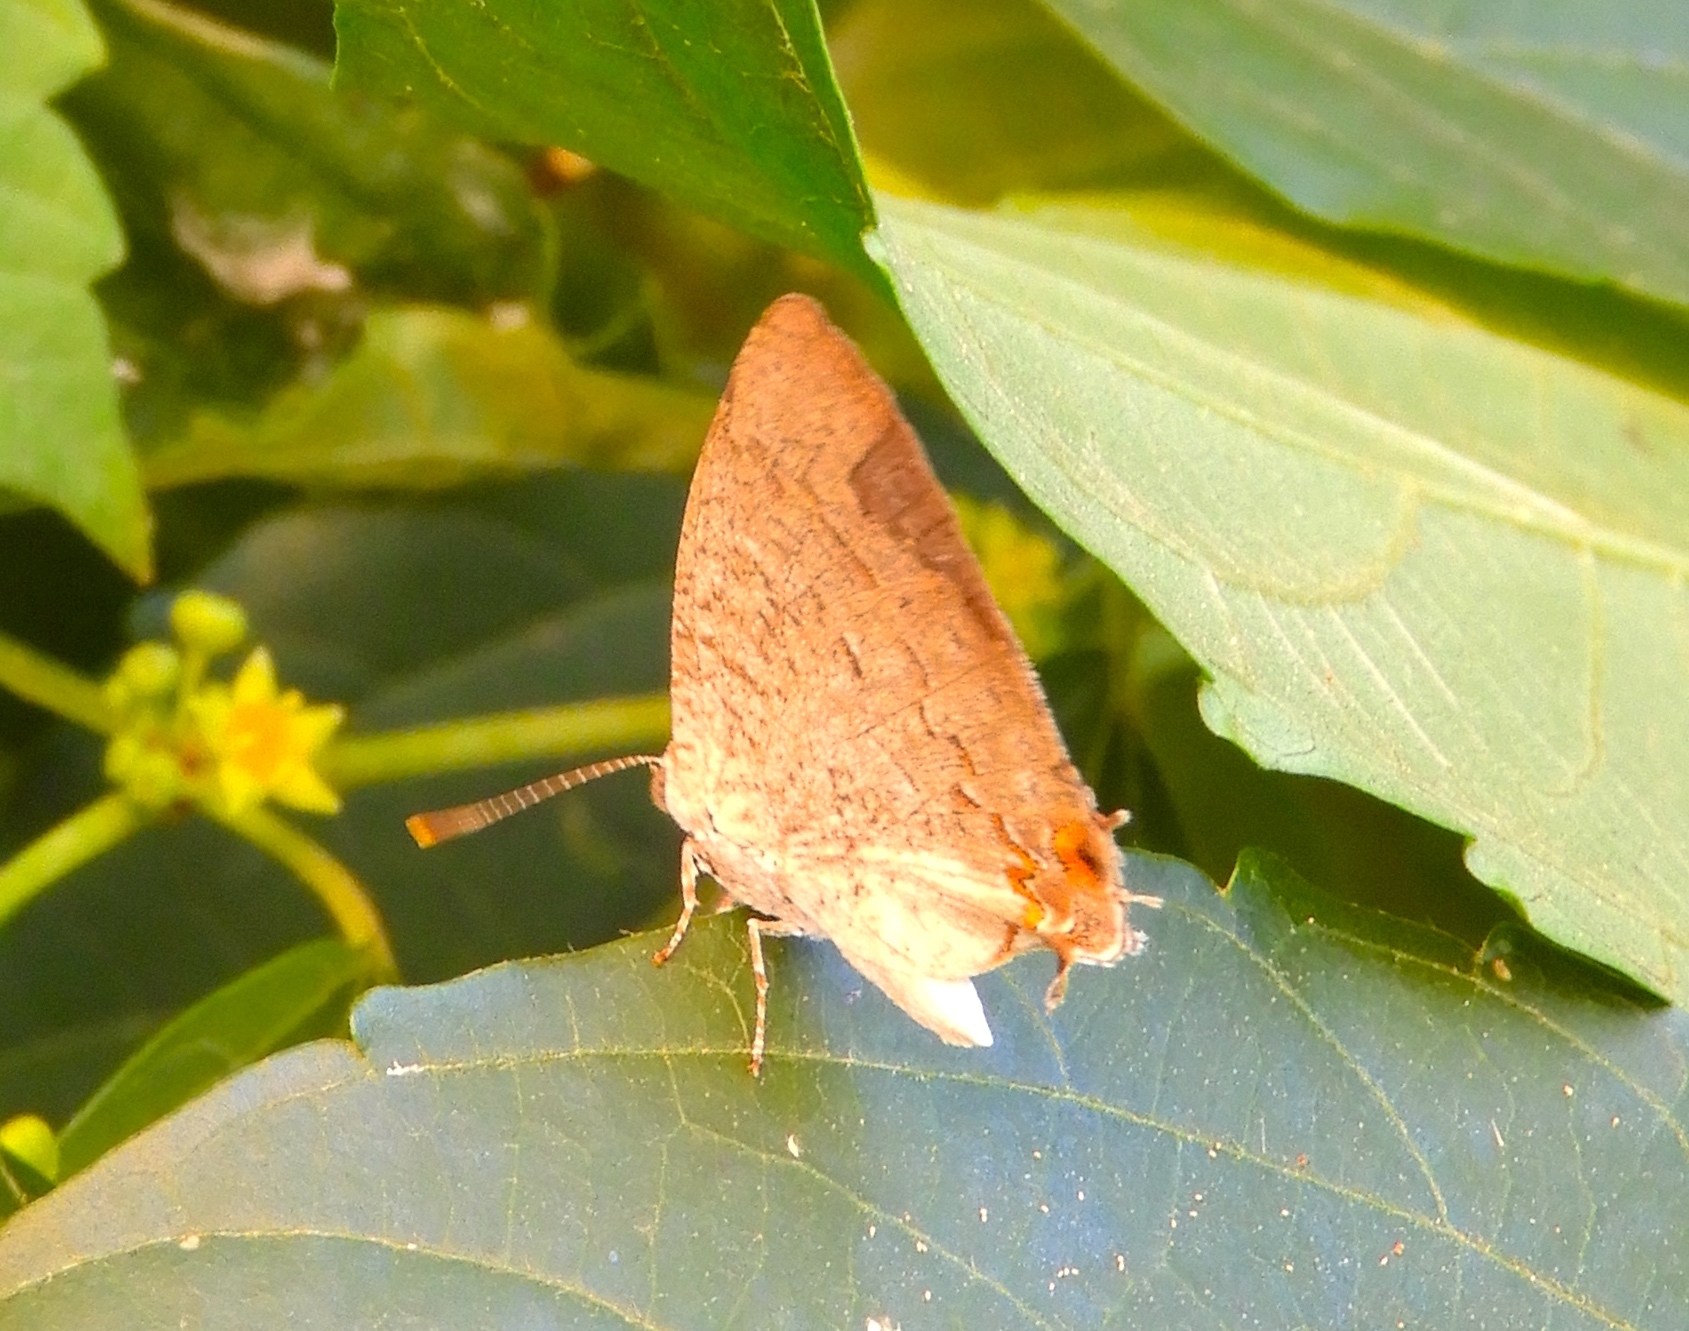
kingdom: Animalia
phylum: Arthropoda
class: Insecta
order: Lepidoptera
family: Lycaenidae
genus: Hypostrymon
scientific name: Hypostrymon critola
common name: Sonoran hairstreak
